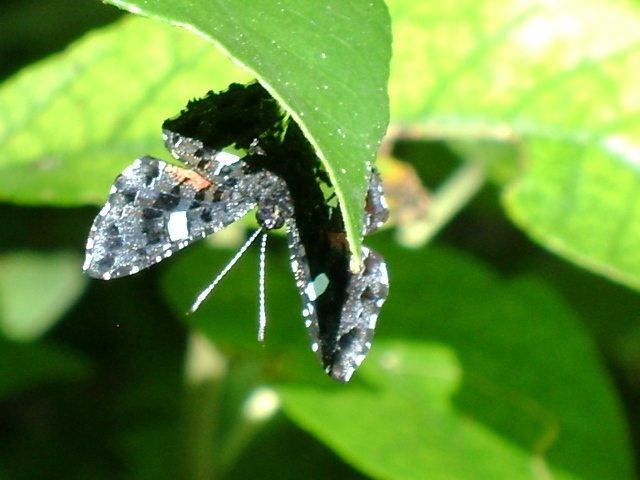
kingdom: Animalia
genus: Calydna
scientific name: Calydna sturnula
